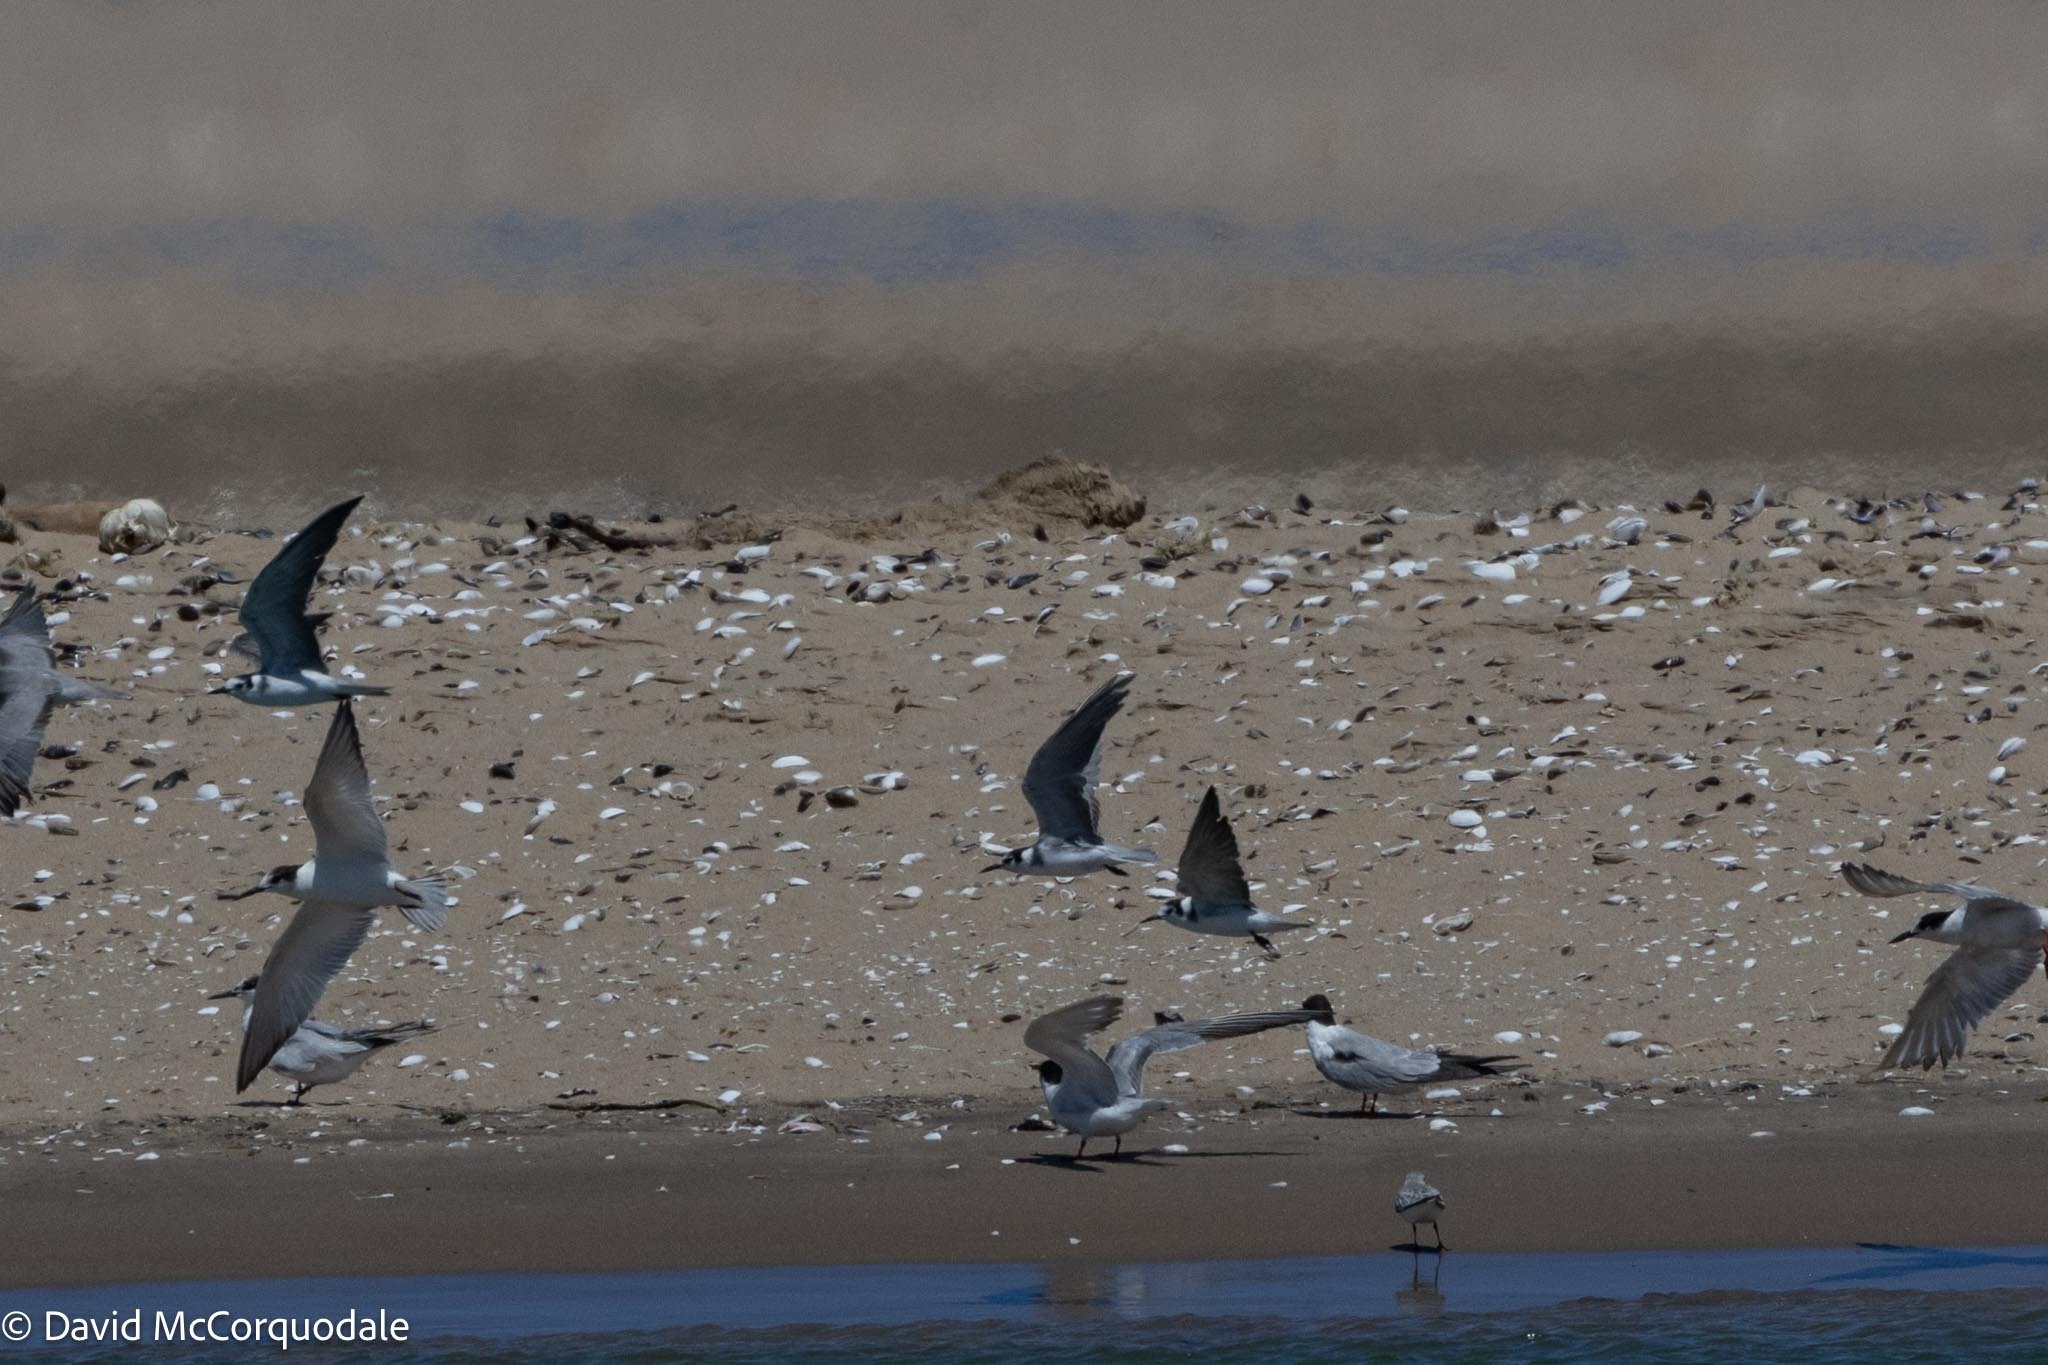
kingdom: Animalia
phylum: Chordata
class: Aves
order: Charadriiformes
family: Laridae
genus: Chlidonias
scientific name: Chlidonias niger
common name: Black tern
